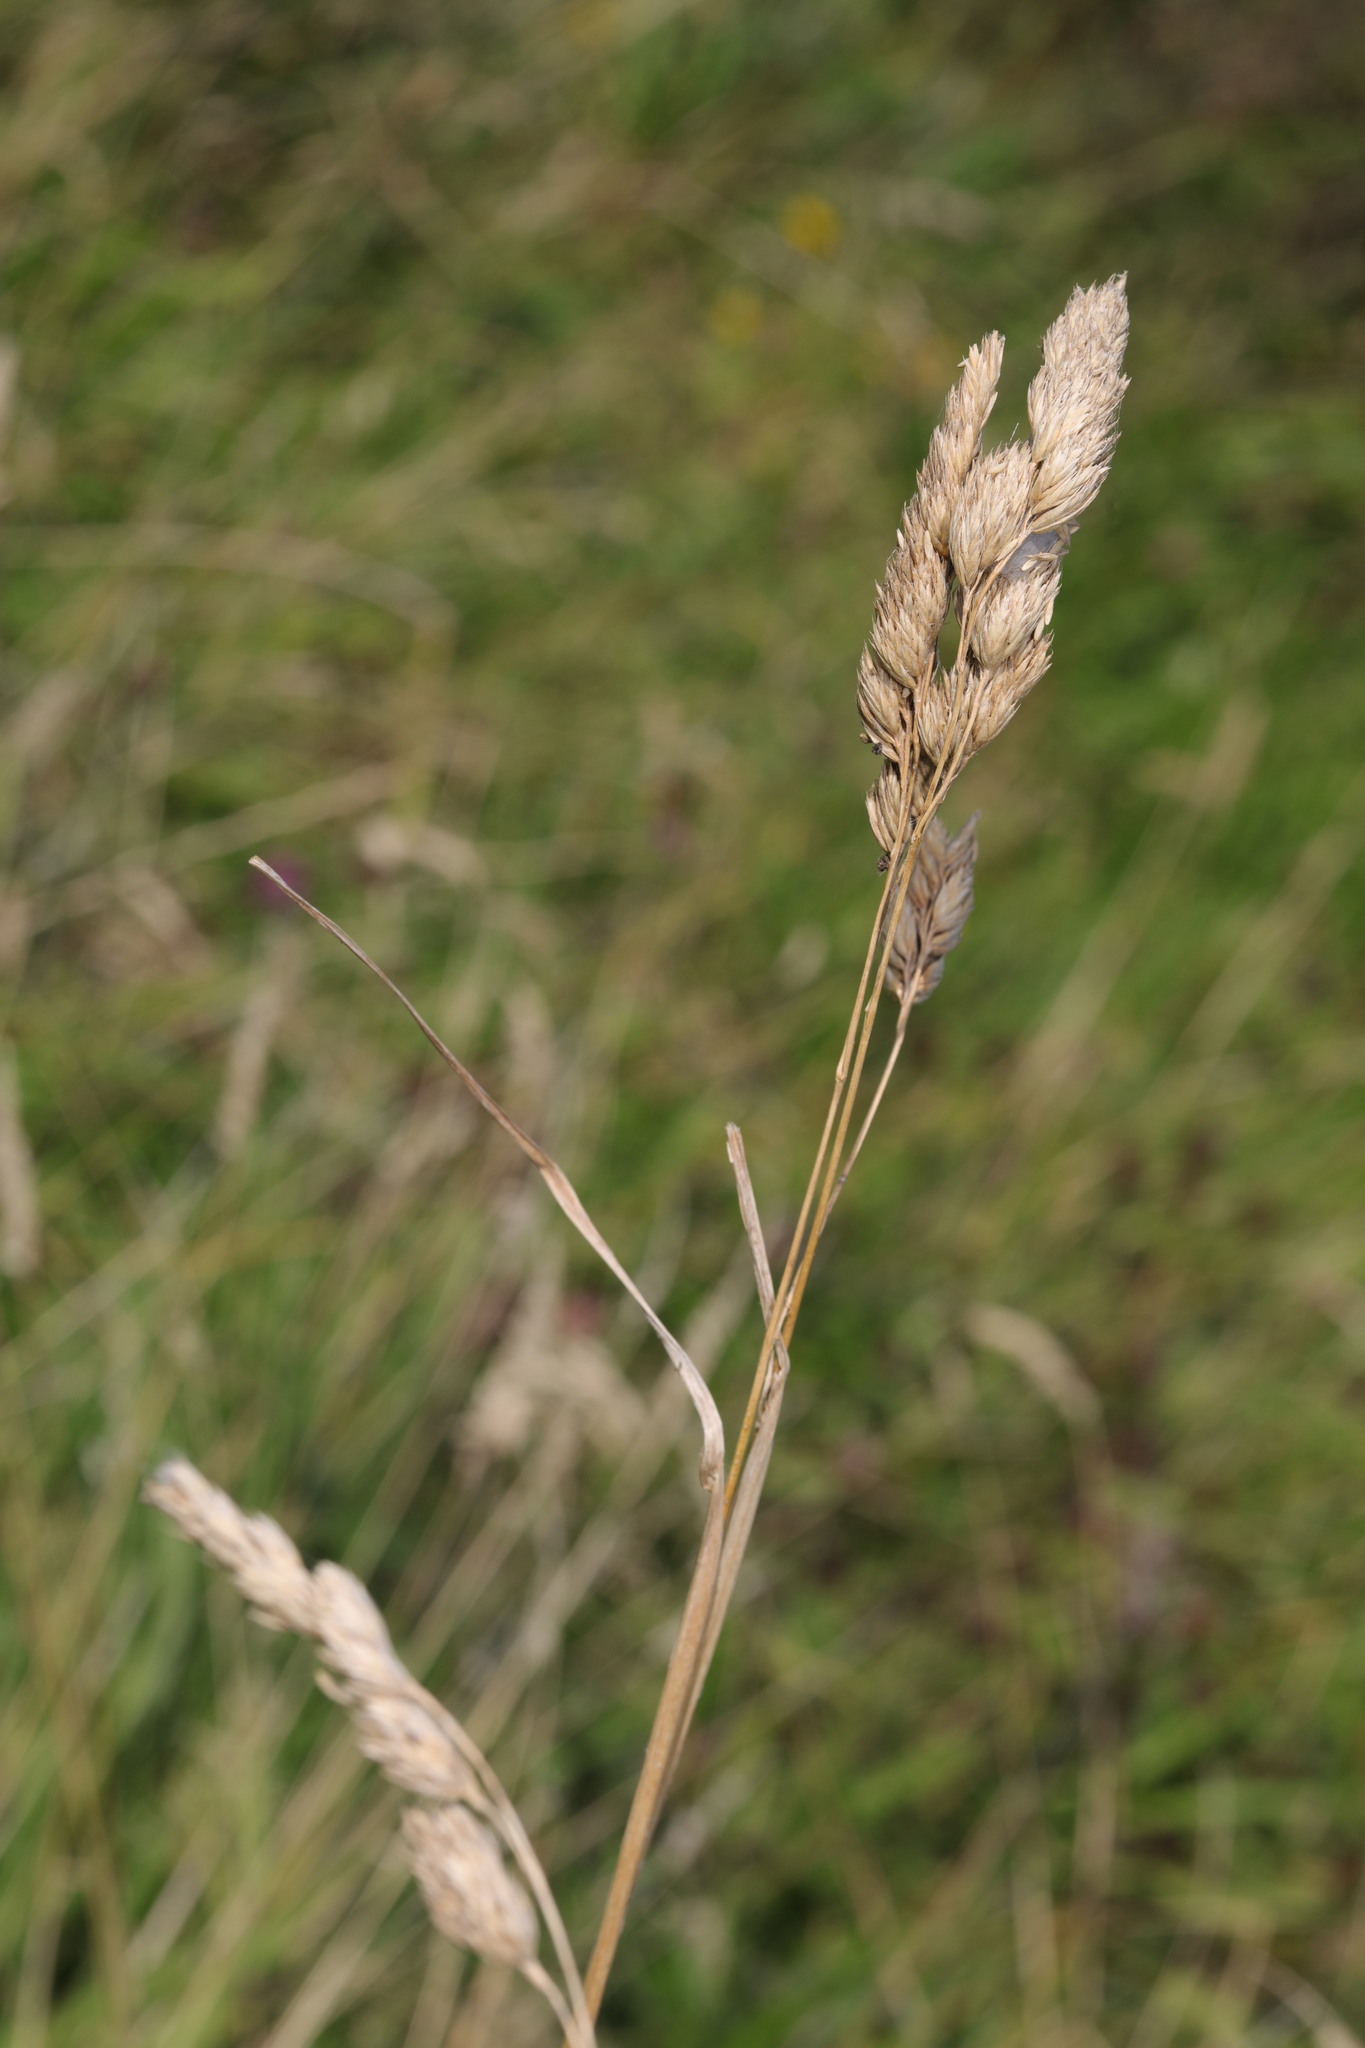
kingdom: Plantae
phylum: Tracheophyta
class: Liliopsida
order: Poales
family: Poaceae
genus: Dactylis
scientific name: Dactylis glomerata
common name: Orchardgrass
